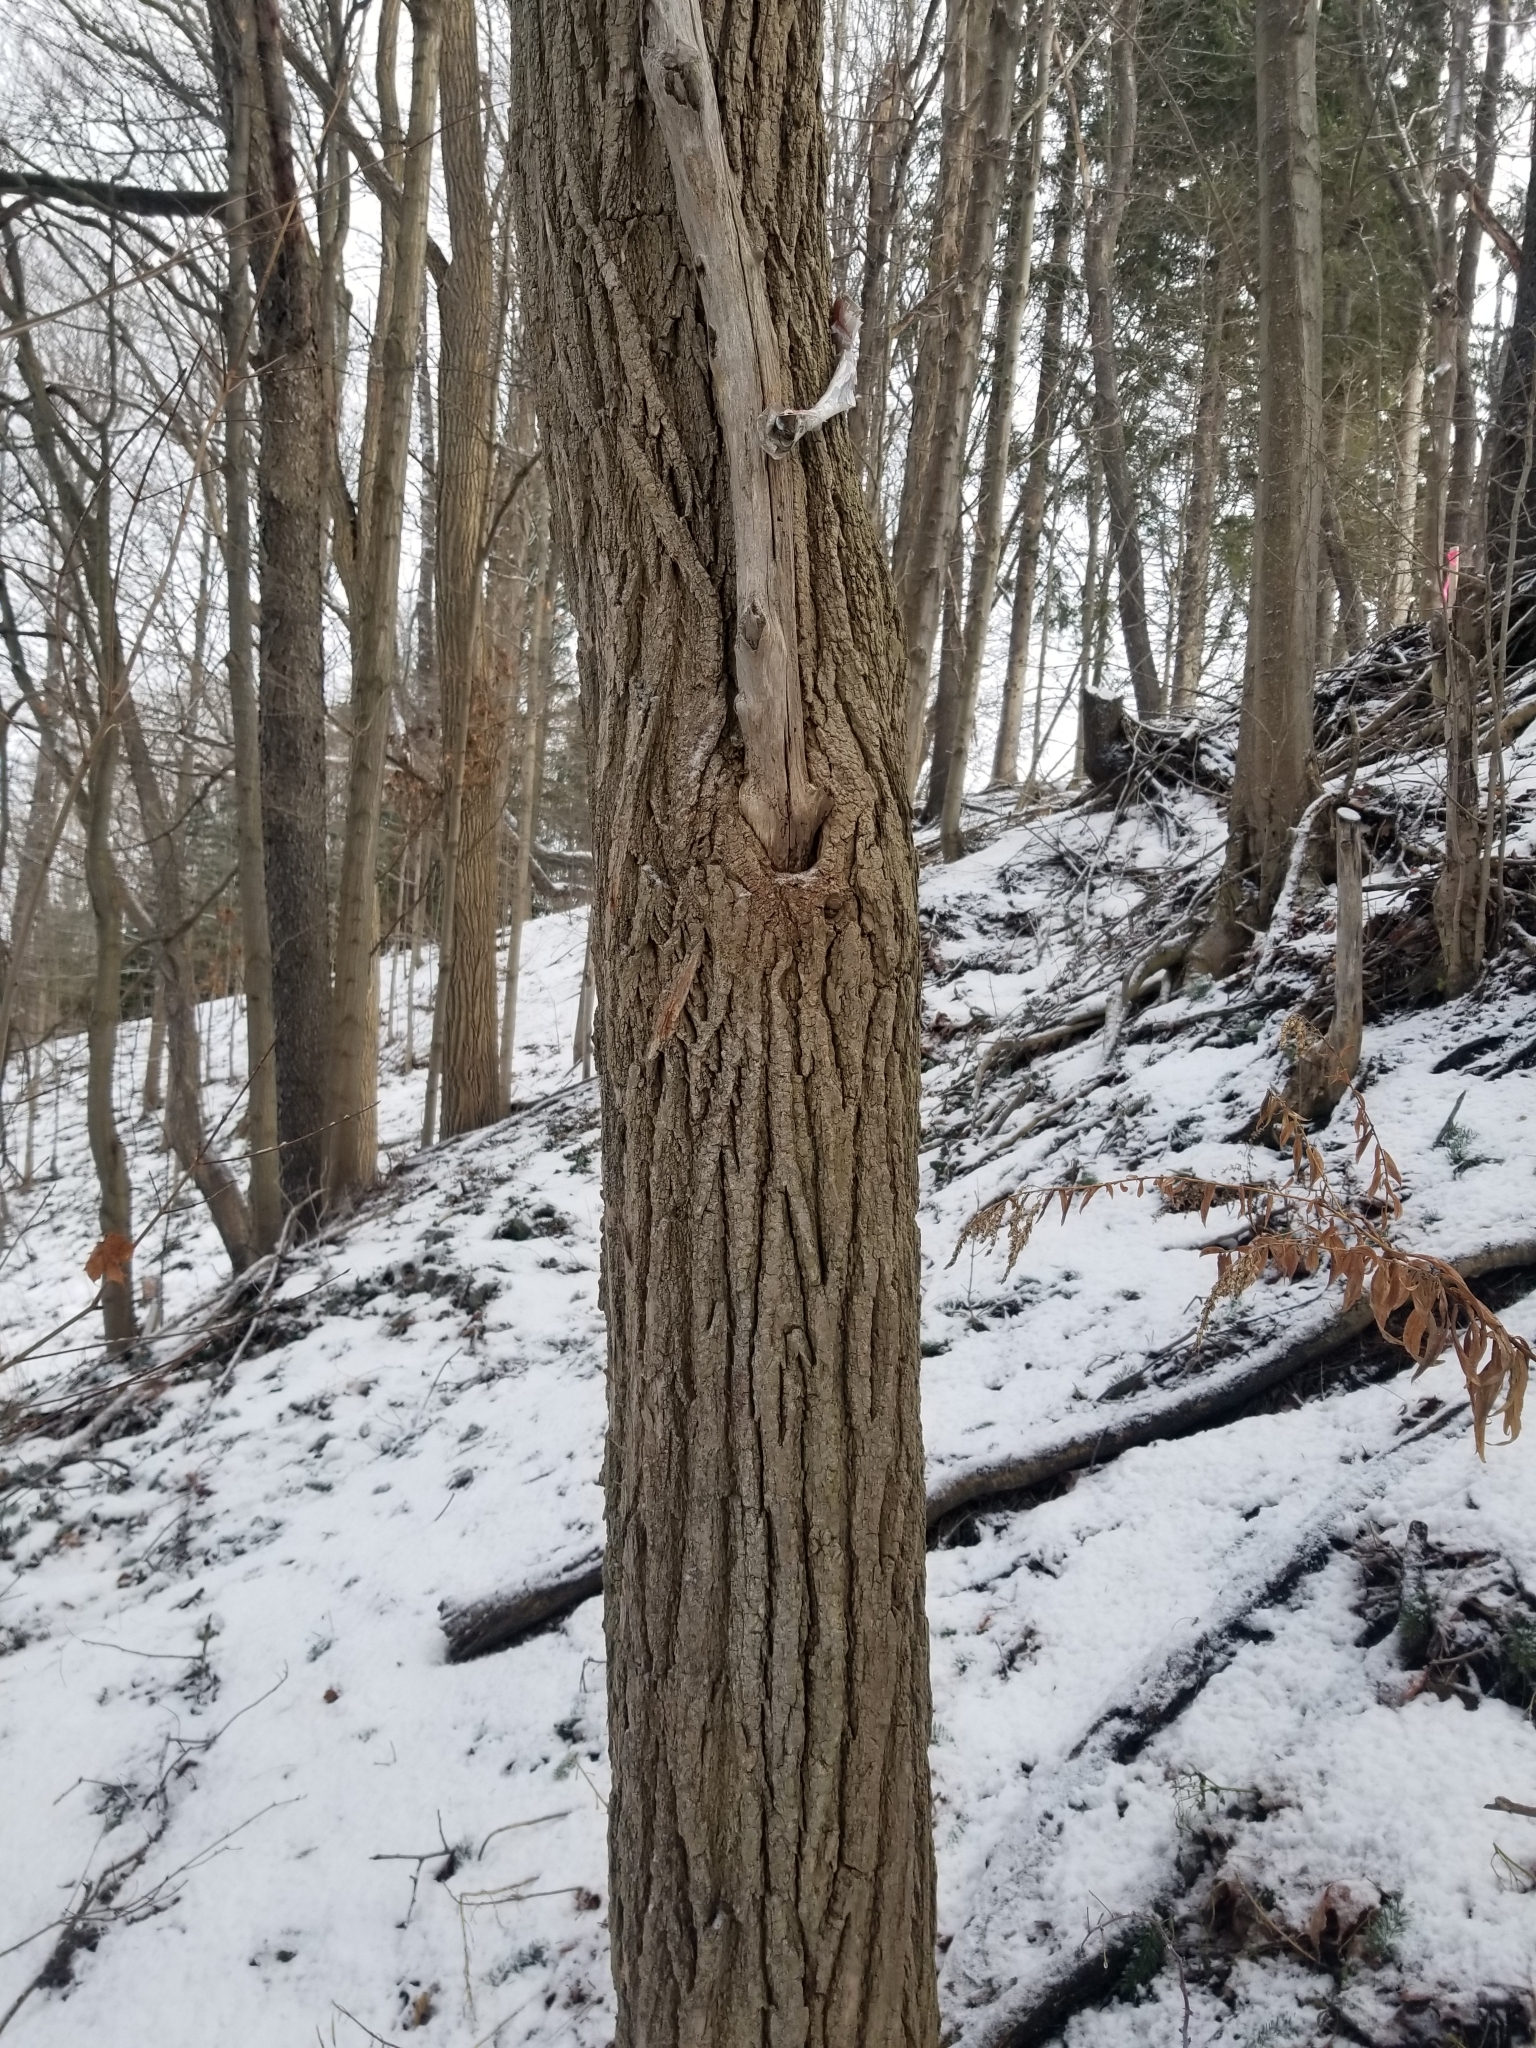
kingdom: Plantae
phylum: Tracheophyta
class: Magnoliopsida
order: Fabales
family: Fabaceae
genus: Robinia
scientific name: Robinia pseudoacacia
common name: Black locust
